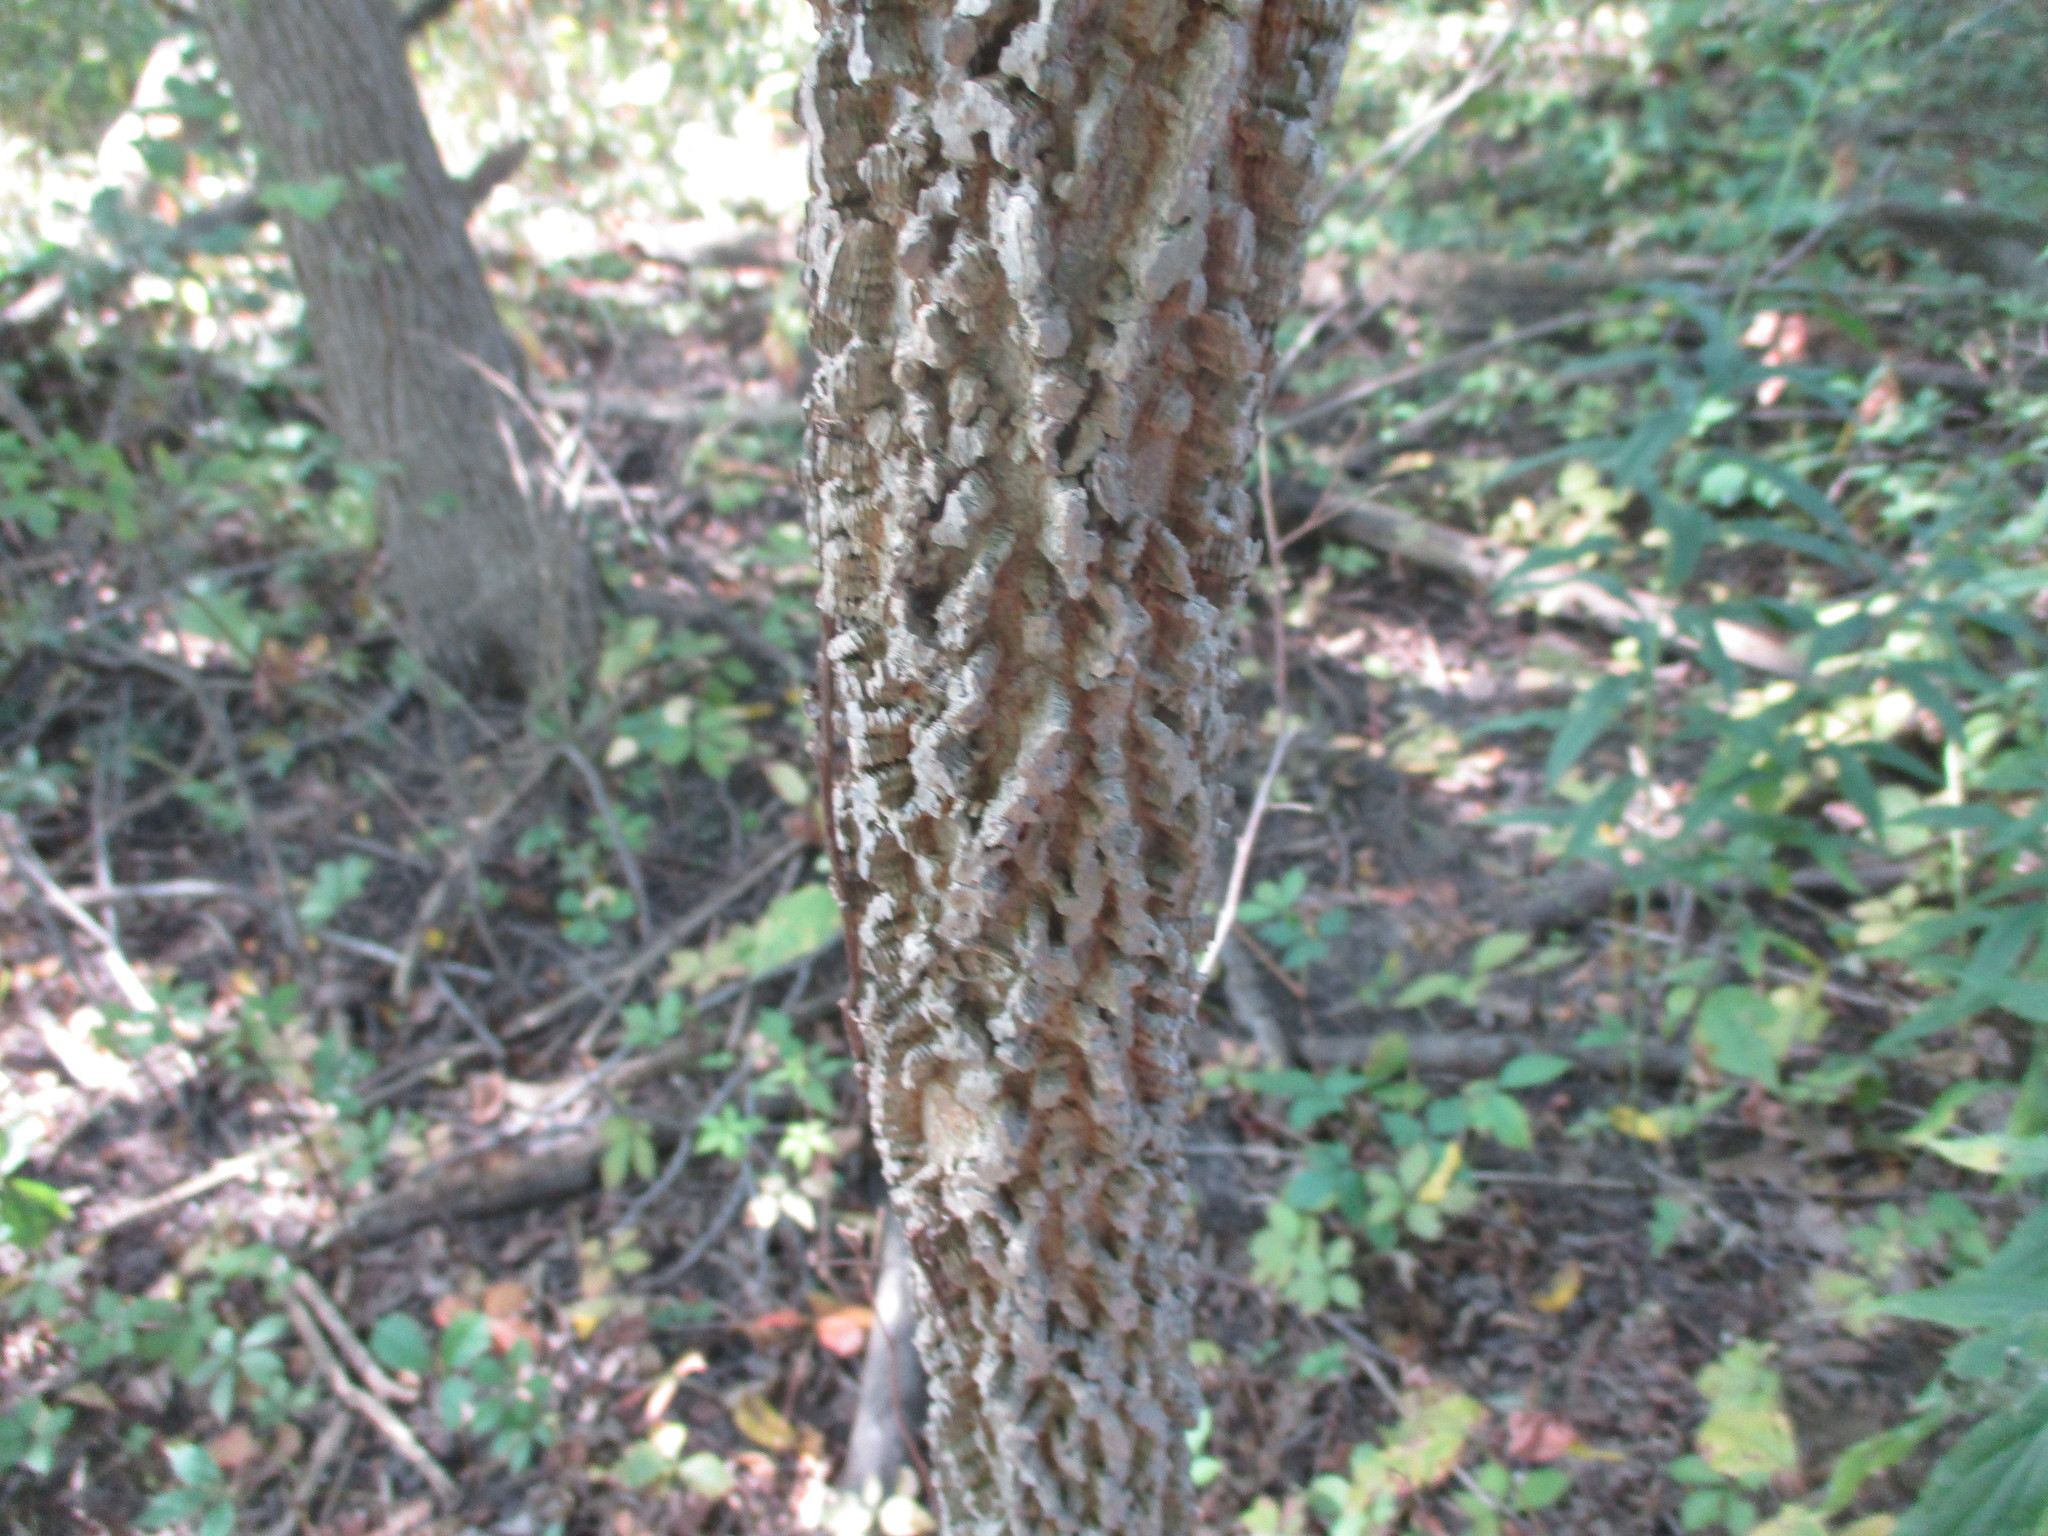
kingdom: Plantae
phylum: Tracheophyta
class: Magnoliopsida
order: Rosales
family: Cannabaceae
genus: Celtis
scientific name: Celtis occidentalis
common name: Common hackberry
